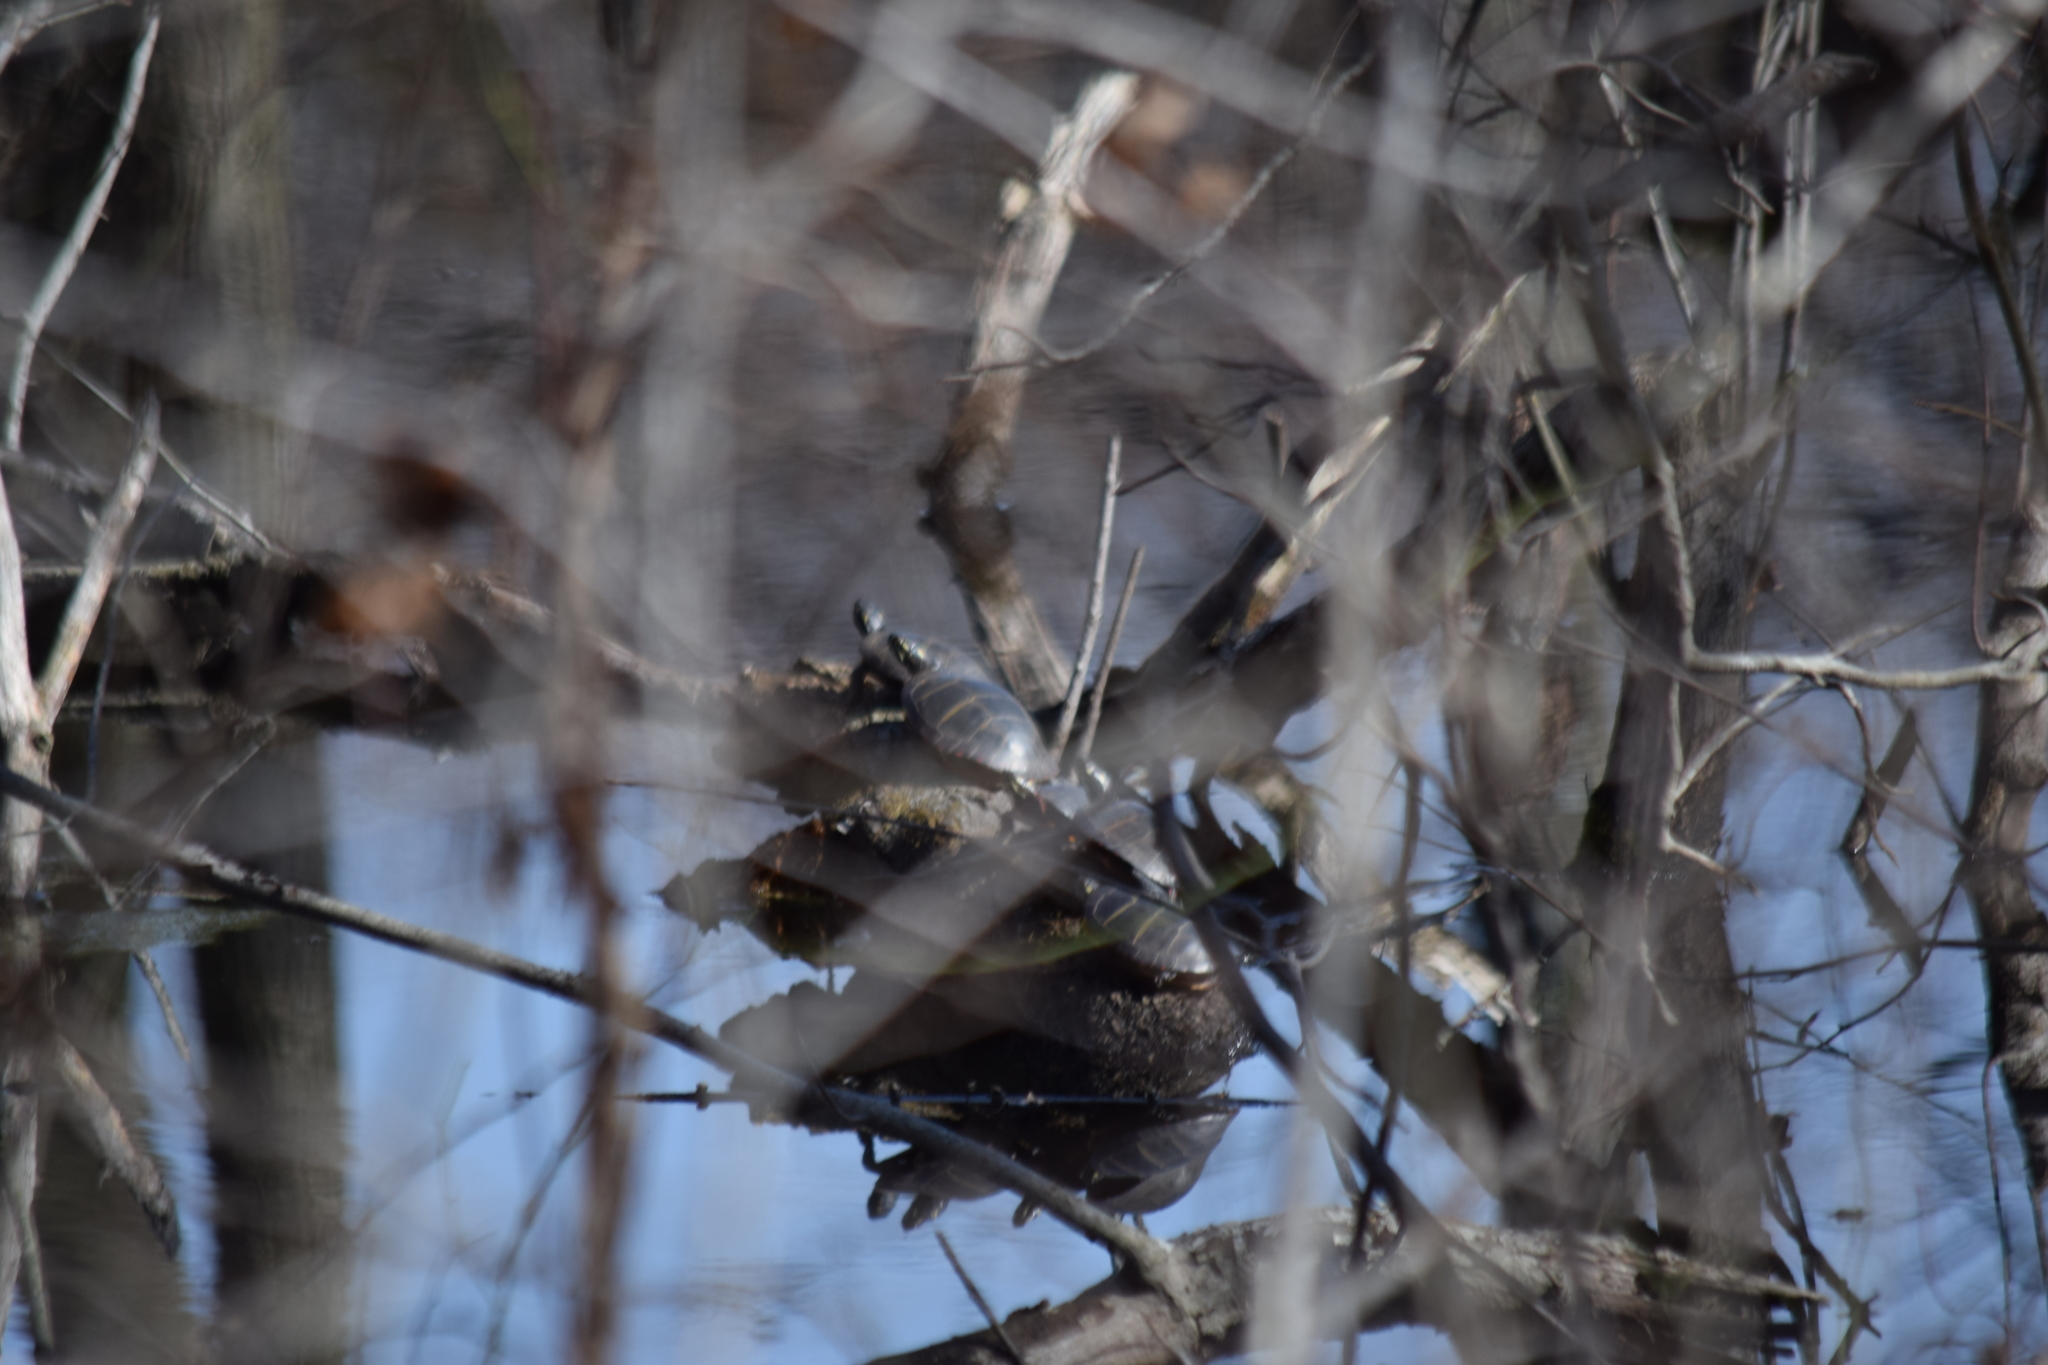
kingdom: Animalia
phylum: Chordata
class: Testudines
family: Emydidae
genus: Chrysemys
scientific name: Chrysemys picta
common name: Painted turtle
